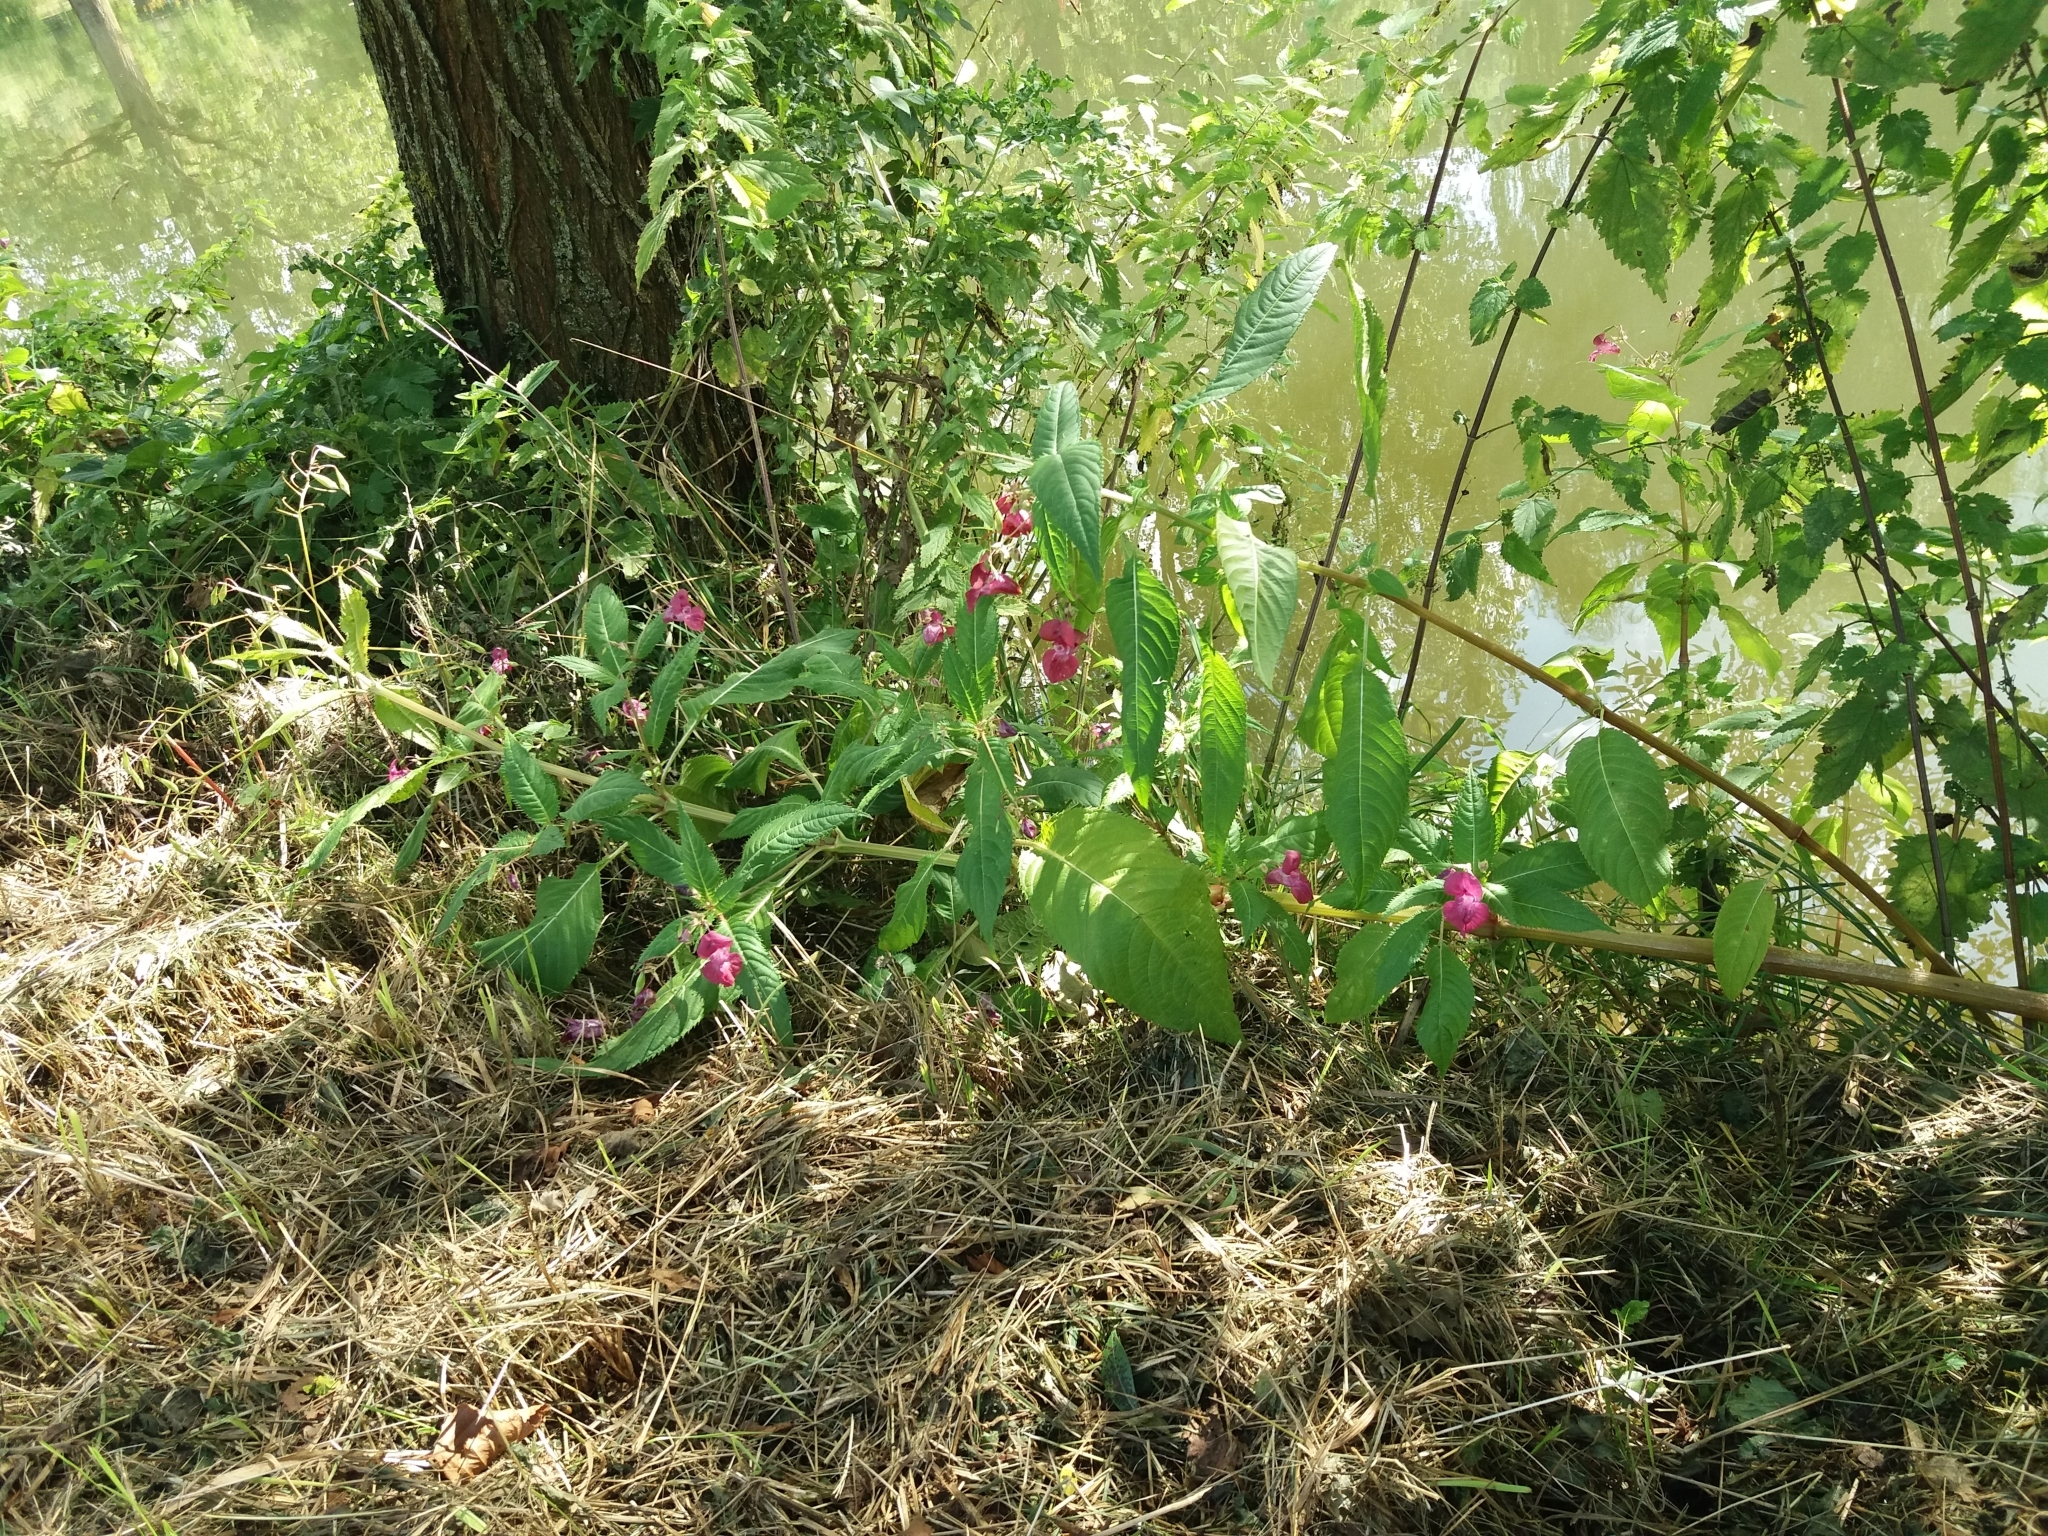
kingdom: Plantae
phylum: Tracheophyta
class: Magnoliopsida
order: Ericales
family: Balsaminaceae
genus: Impatiens
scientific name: Impatiens glandulifera
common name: Himalayan balsam
